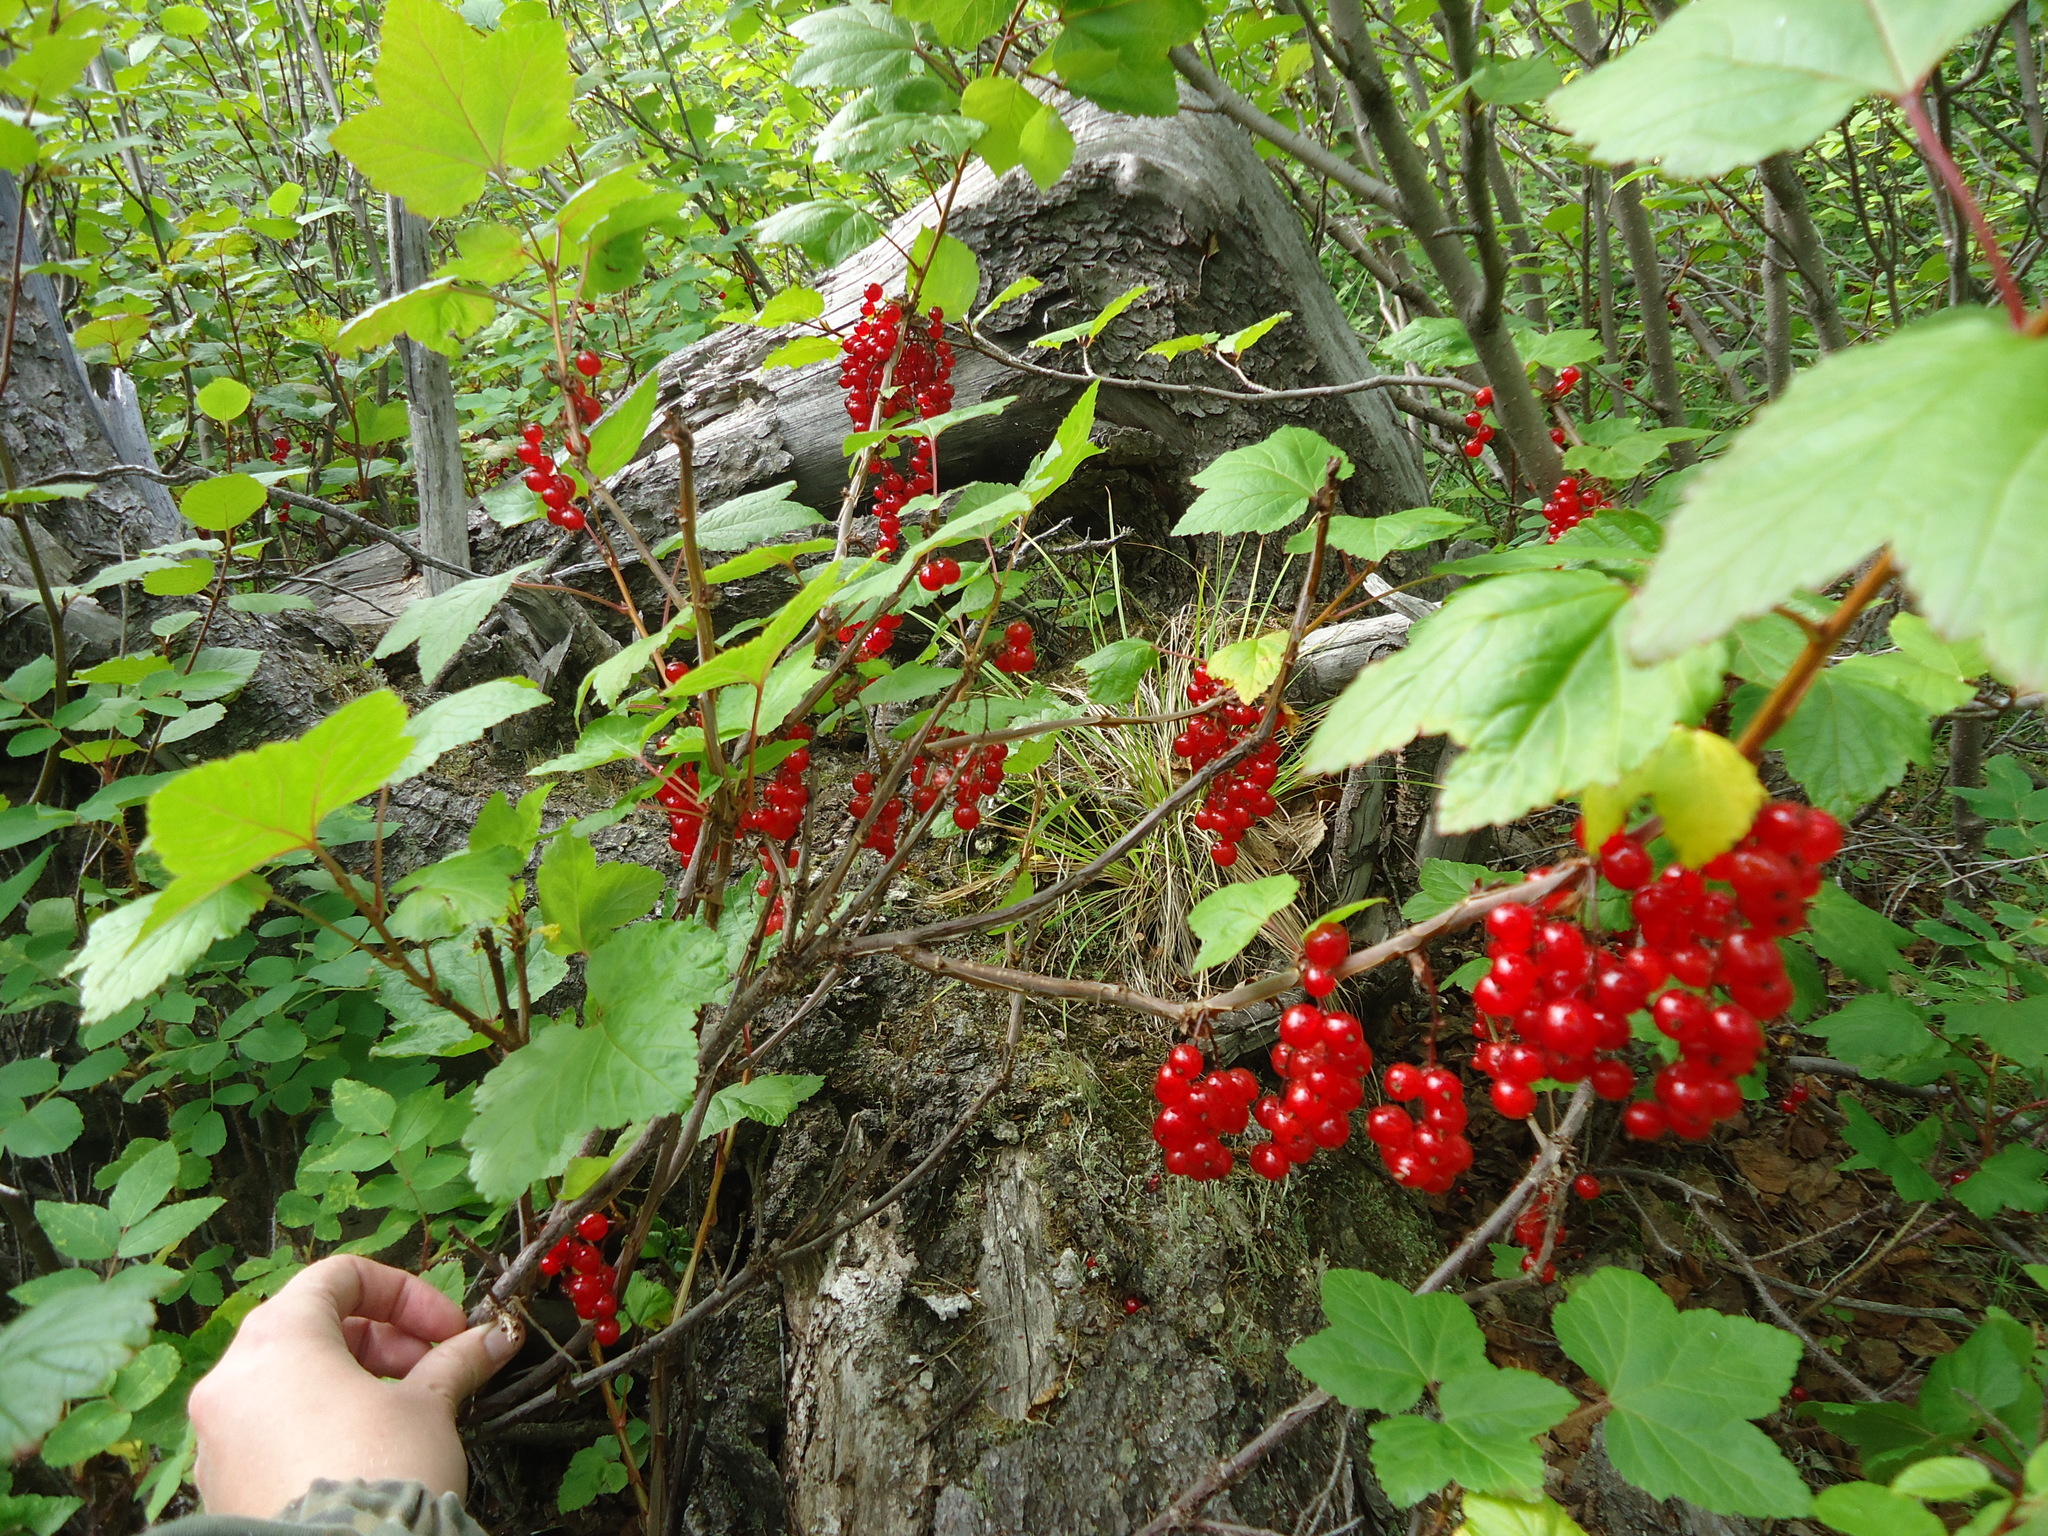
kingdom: Plantae
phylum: Tracheophyta
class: Magnoliopsida
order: Saxifragales
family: Grossulariaceae
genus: Ribes
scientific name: Ribes triste
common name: Swamp red currant
